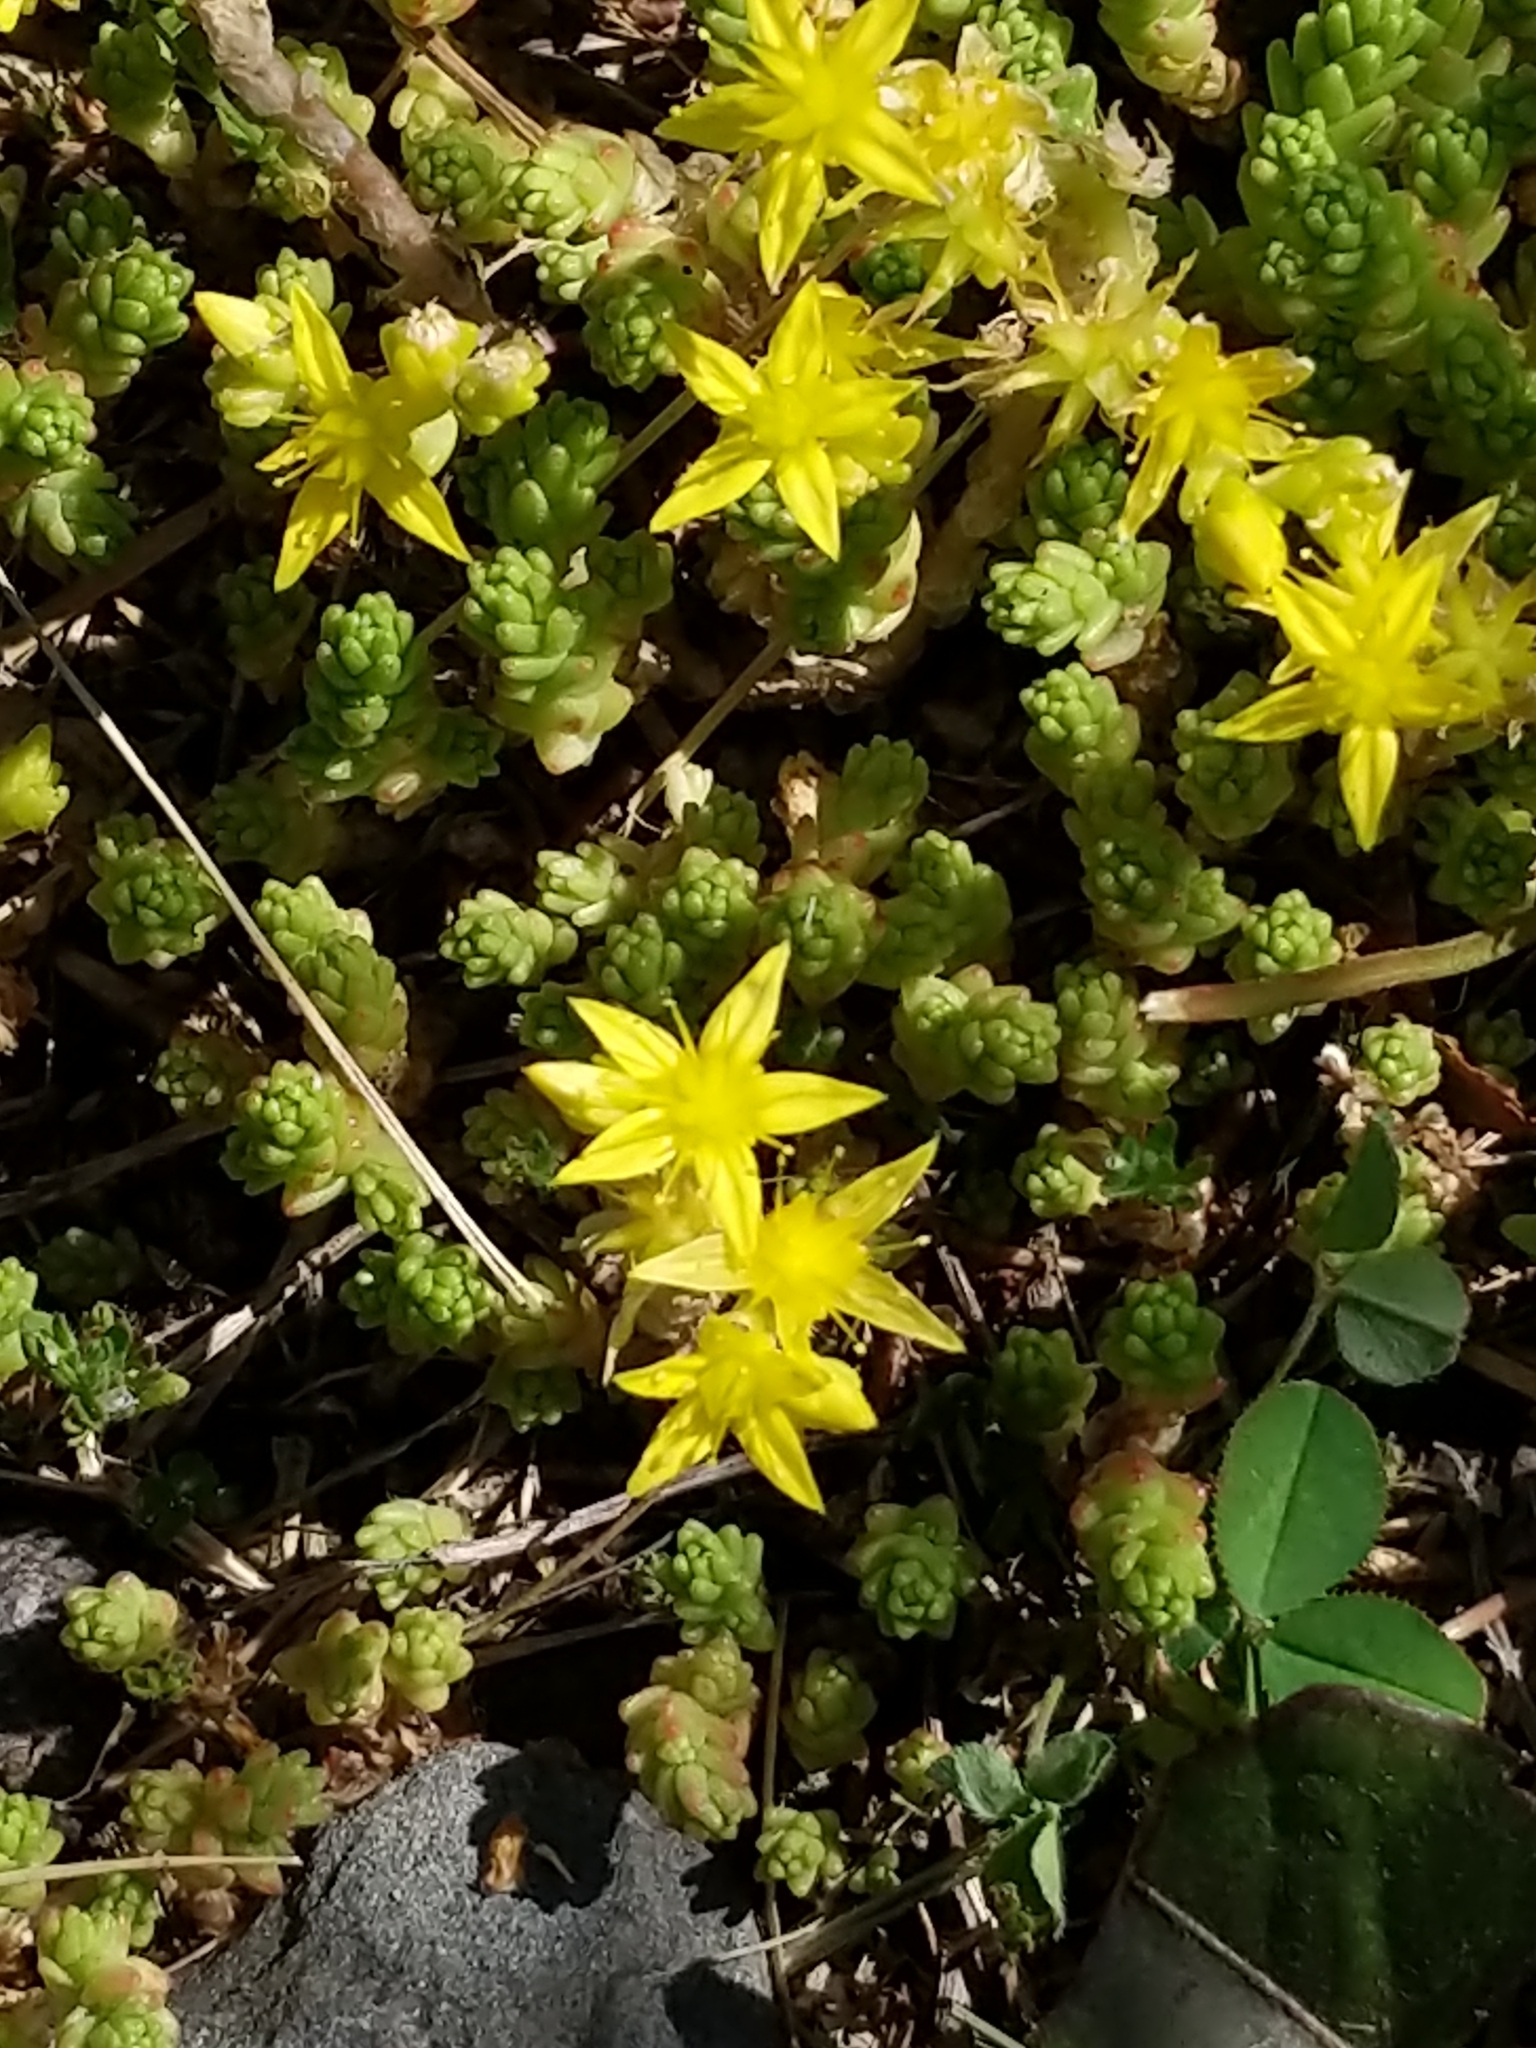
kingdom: Plantae
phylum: Tracheophyta
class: Magnoliopsida
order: Saxifragales
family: Crassulaceae
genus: Sedum
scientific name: Sedum acre
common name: Biting stonecrop
